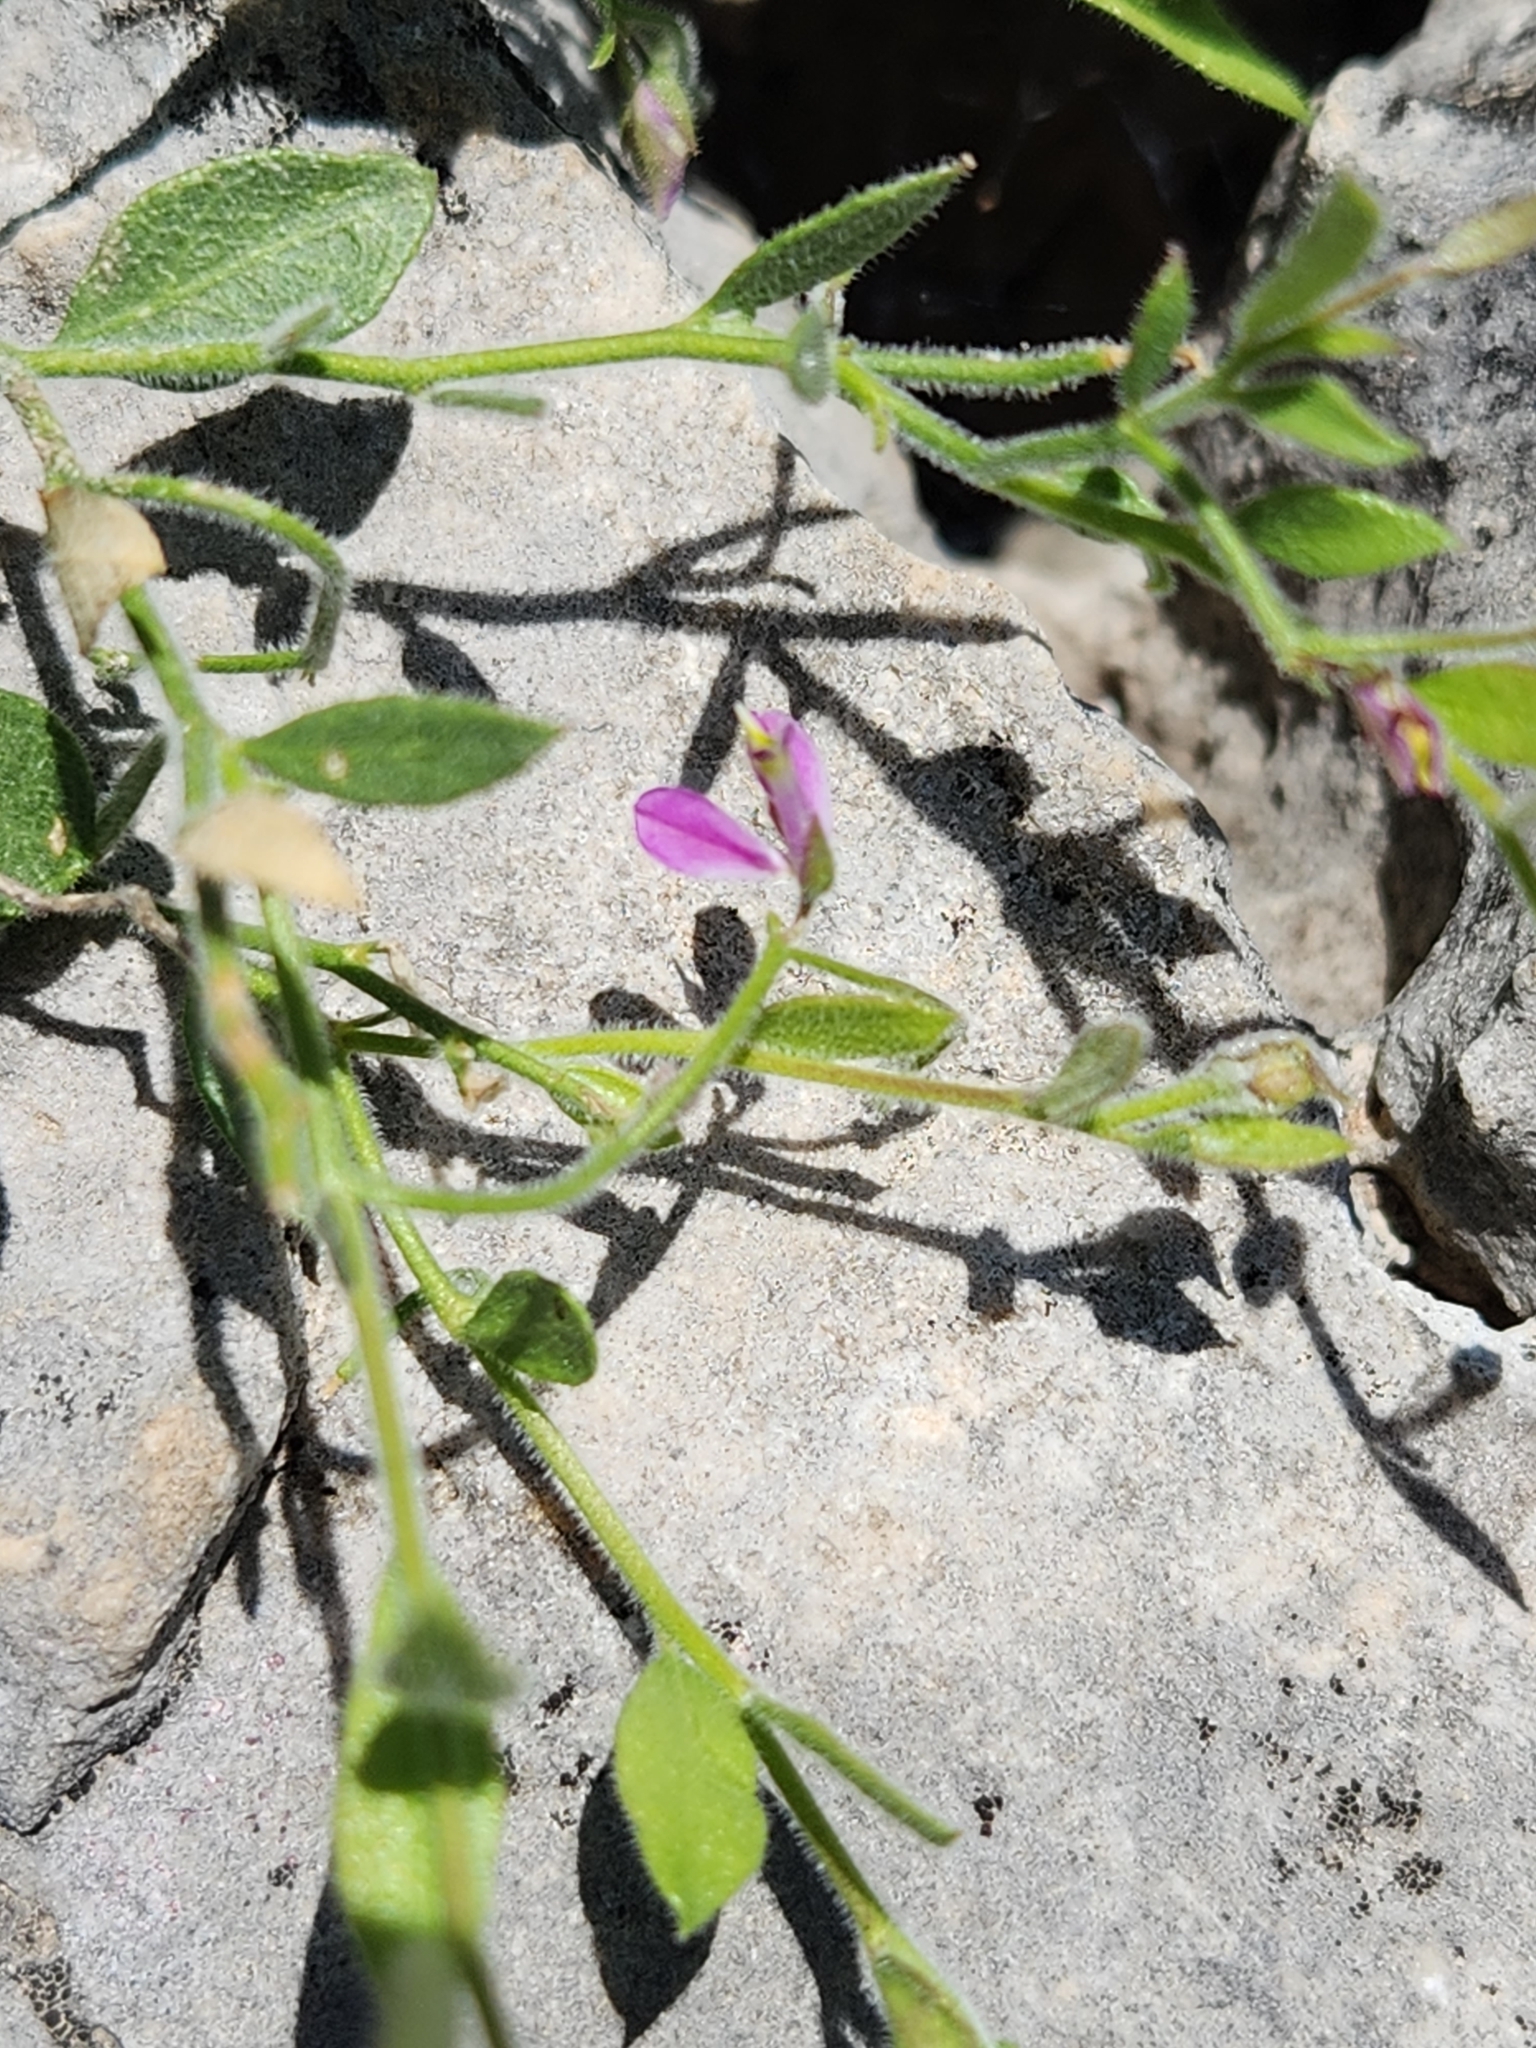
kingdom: Plantae
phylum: Tracheophyta
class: Magnoliopsida
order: Fabales
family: Polygalaceae
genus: Rhinotropis
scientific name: Rhinotropis lindheimeri
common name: Shrubby milkwort
